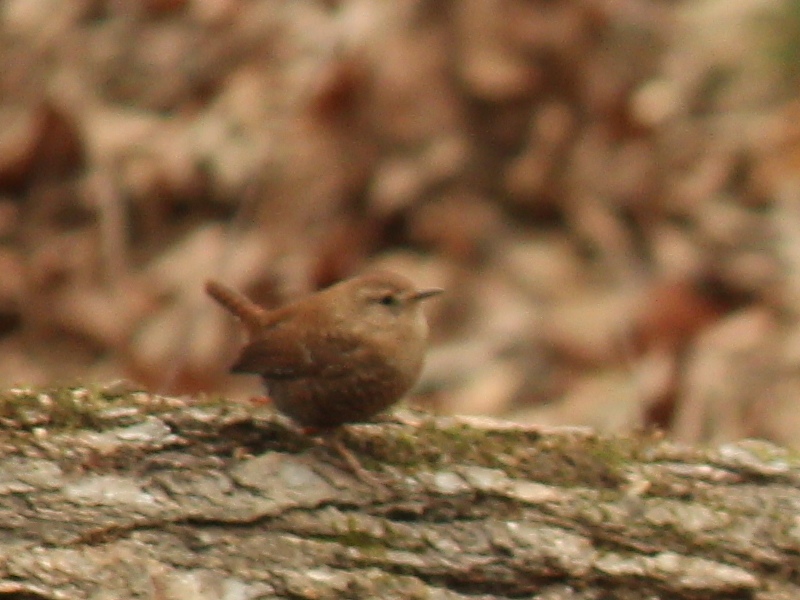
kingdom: Animalia
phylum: Chordata
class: Aves
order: Passeriformes
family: Troglodytidae
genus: Troglodytes
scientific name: Troglodytes hiemalis
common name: Winter wren
